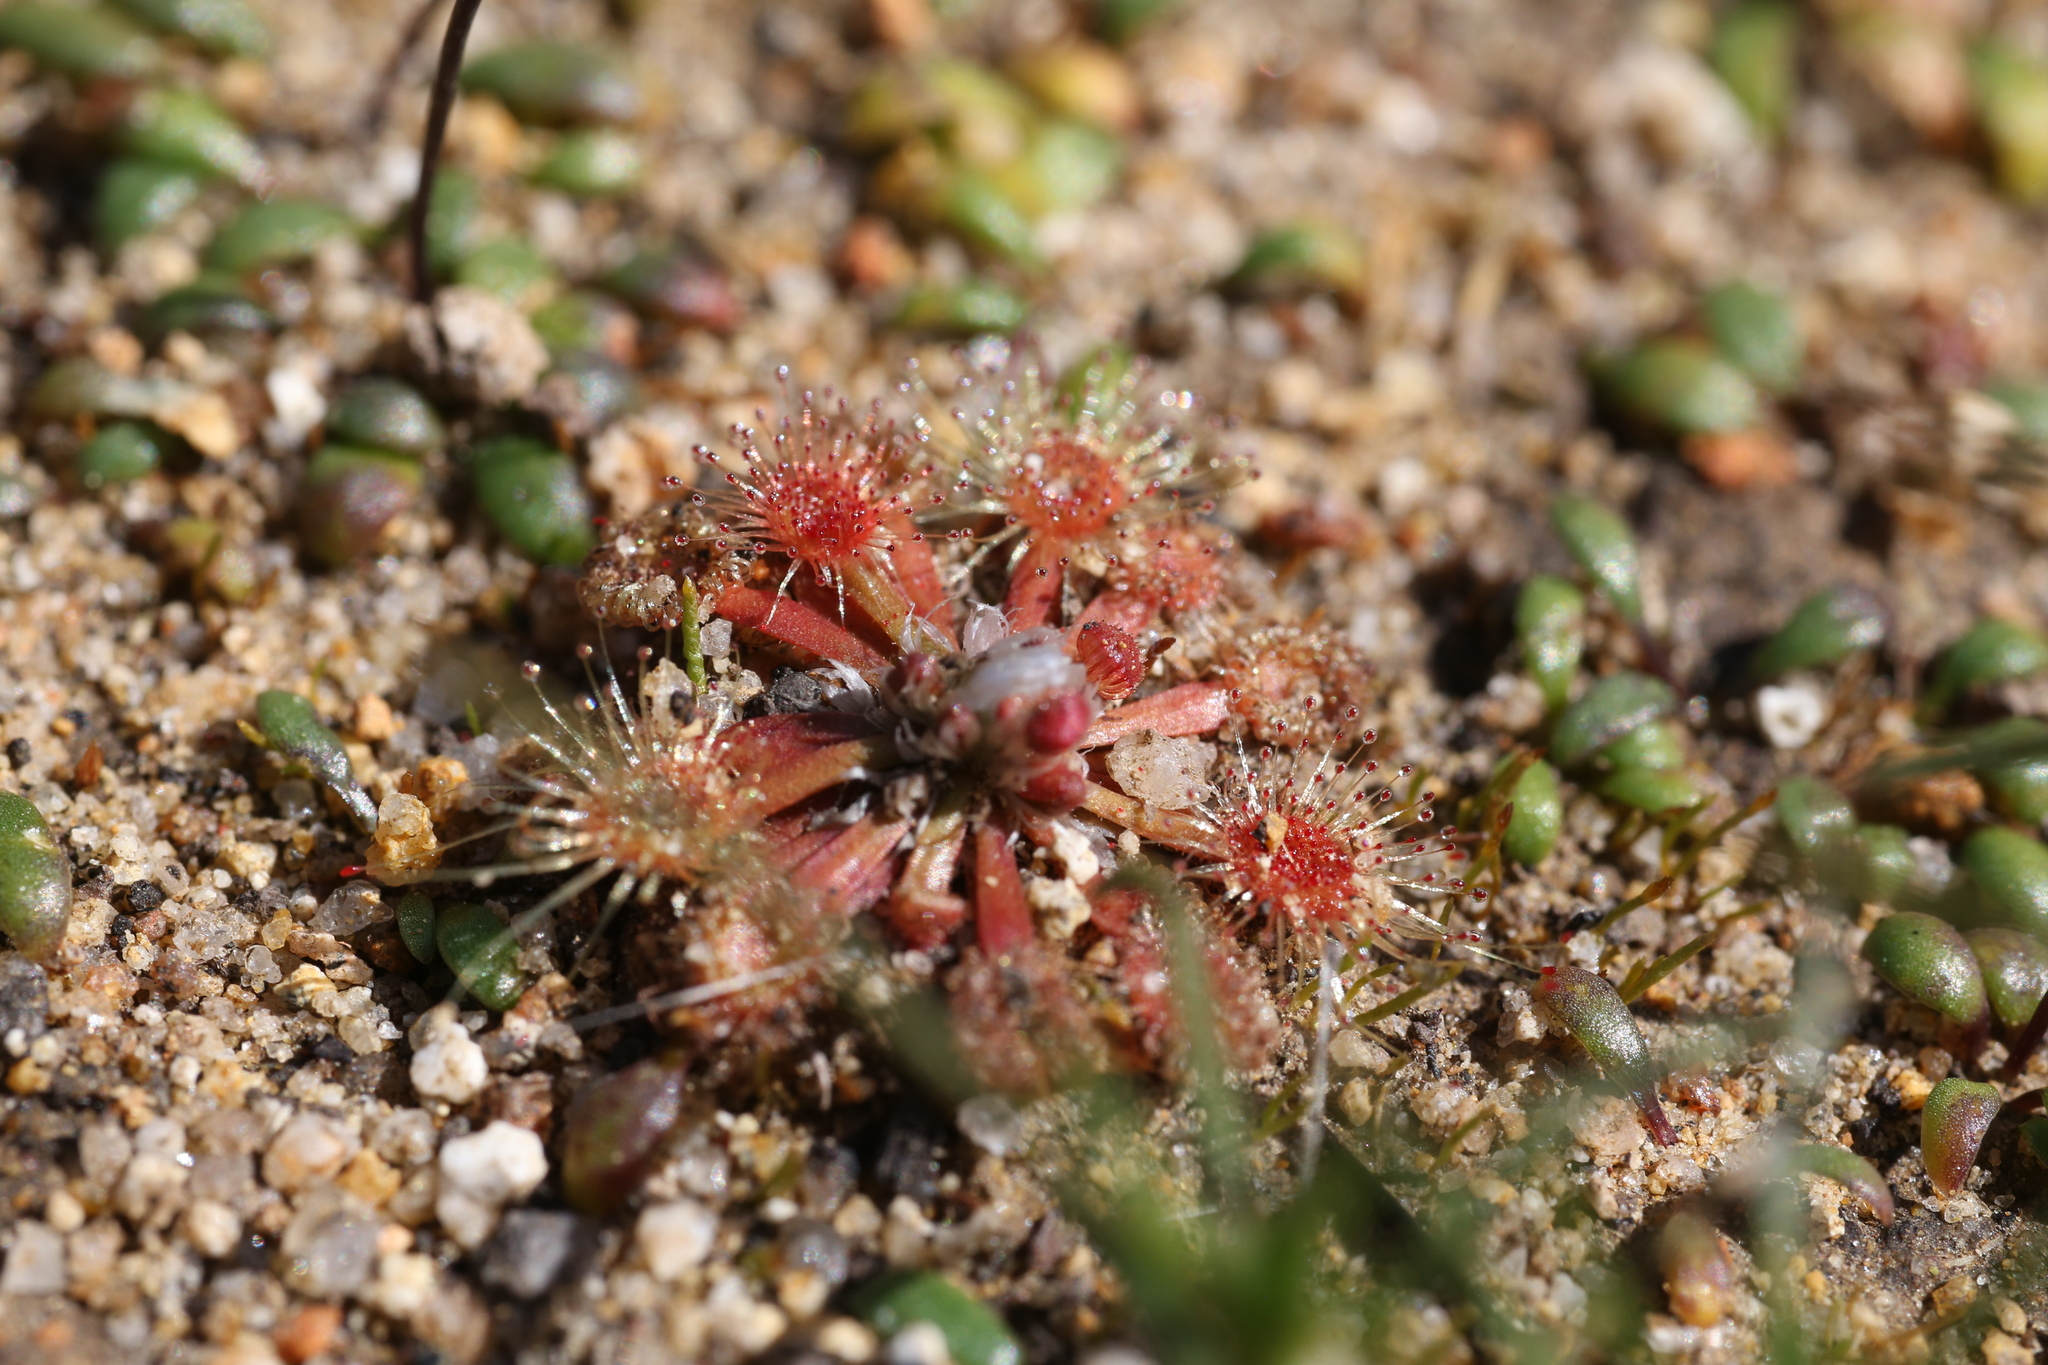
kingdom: Plantae
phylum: Tracheophyta
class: Magnoliopsida
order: Caryophyllales
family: Droseraceae
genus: Drosera
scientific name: Drosera walyunga
